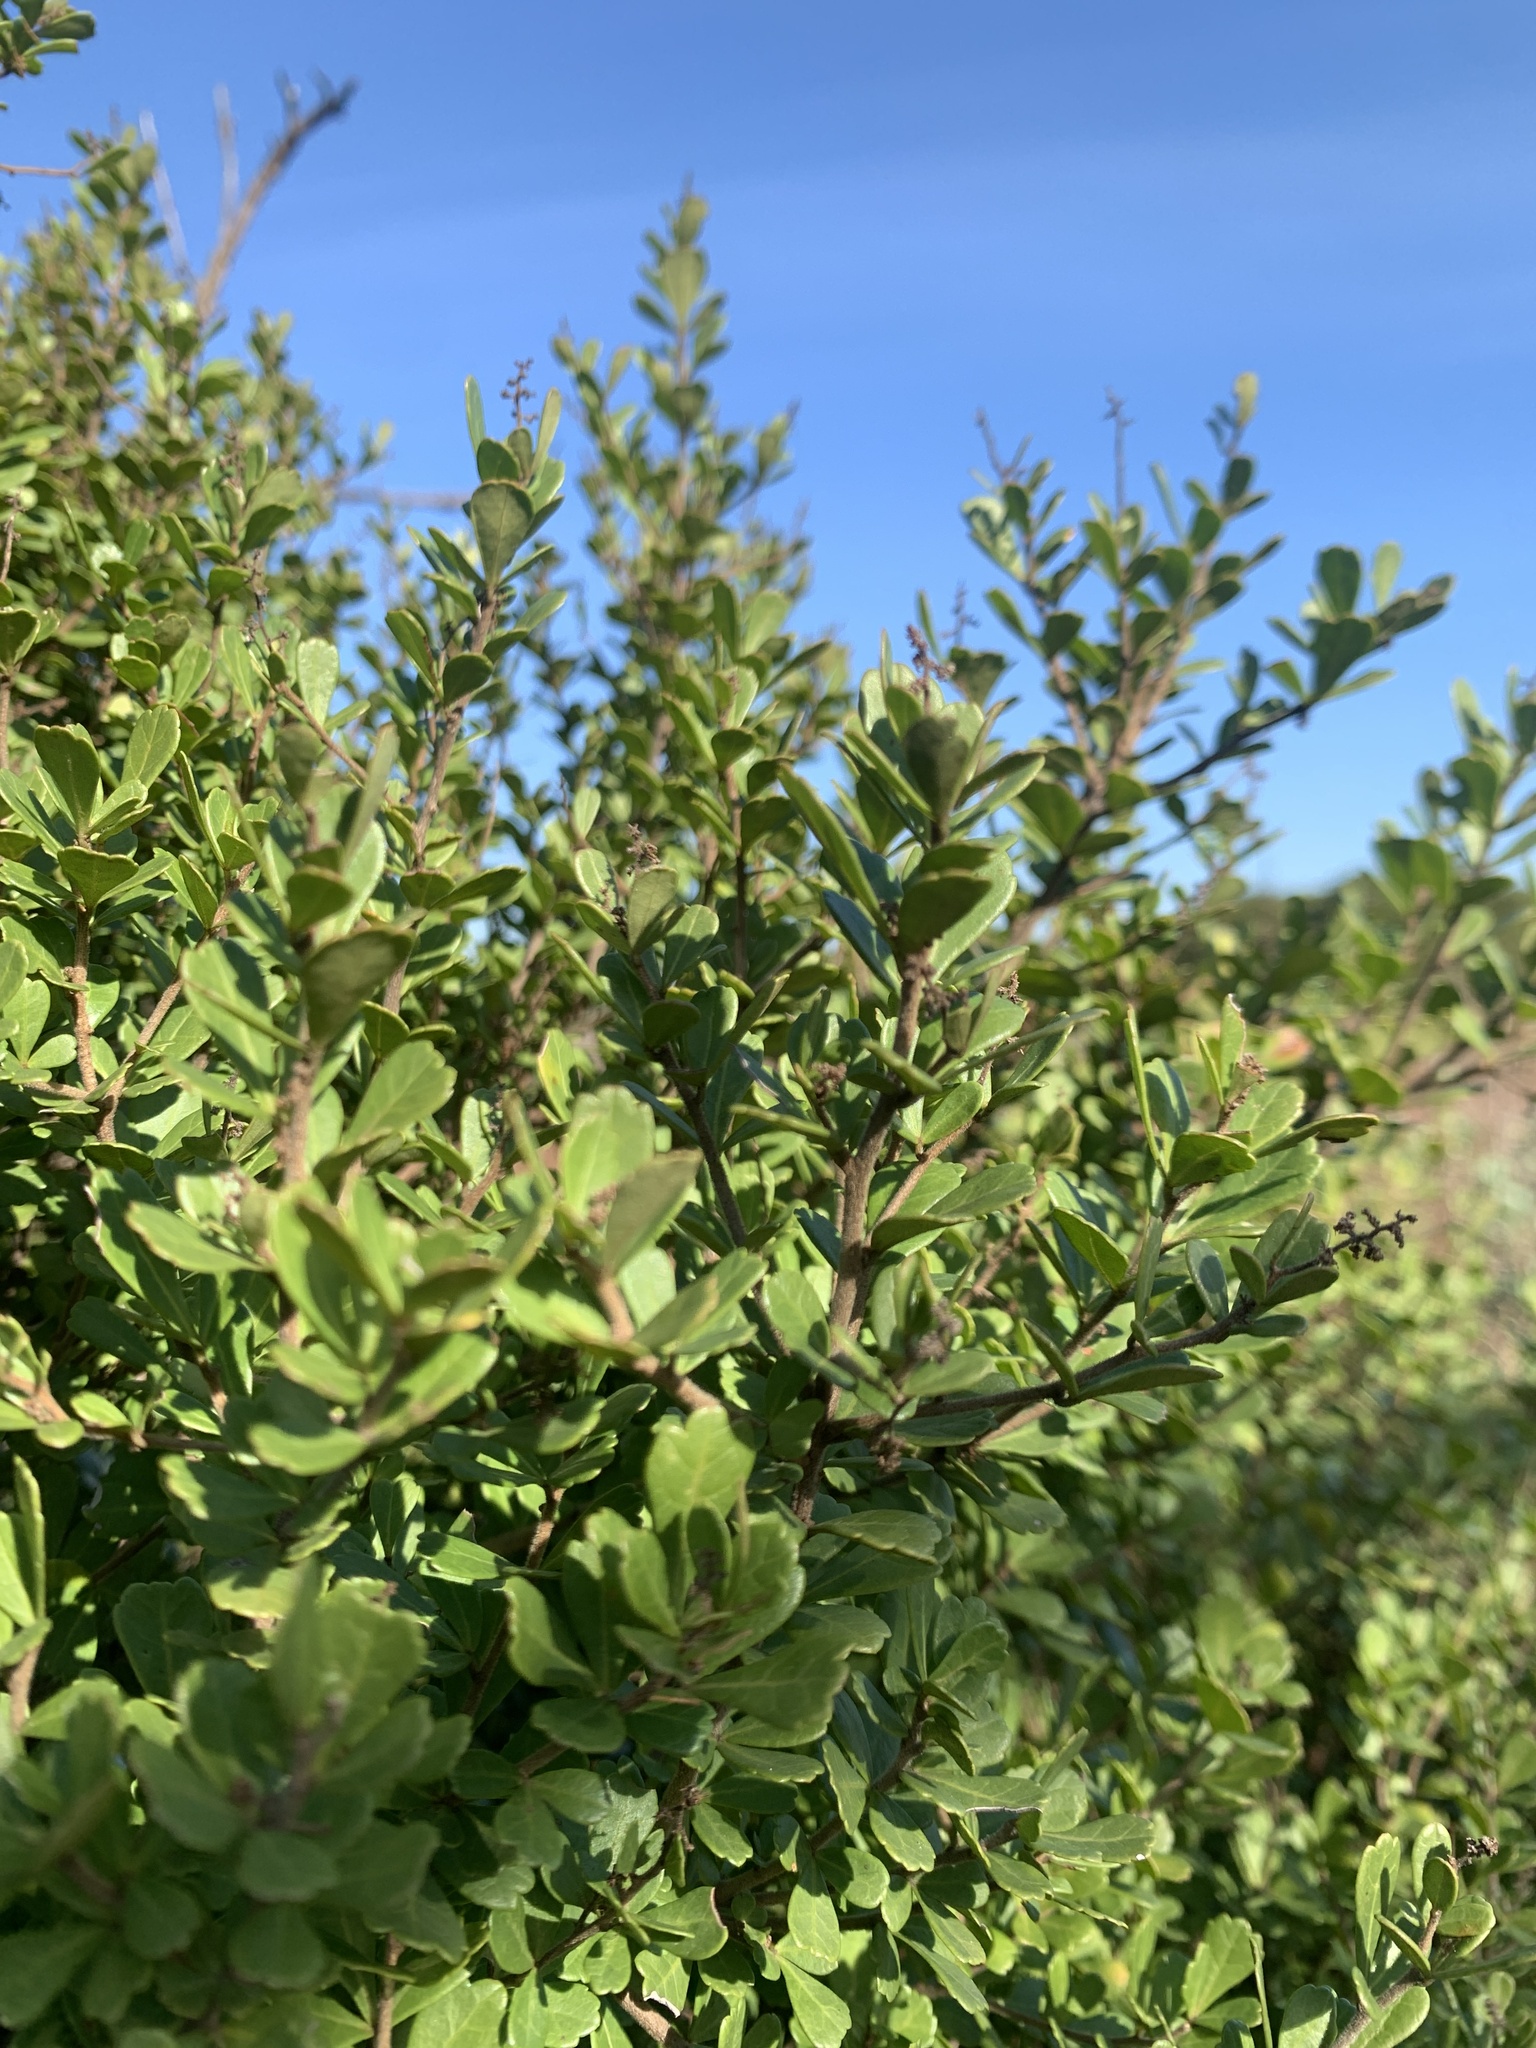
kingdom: Plantae
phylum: Tracheophyta
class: Magnoliopsida
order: Sapindales
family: Anacardiaceae
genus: Searsia
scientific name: Searsia crenata
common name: Crowberry
